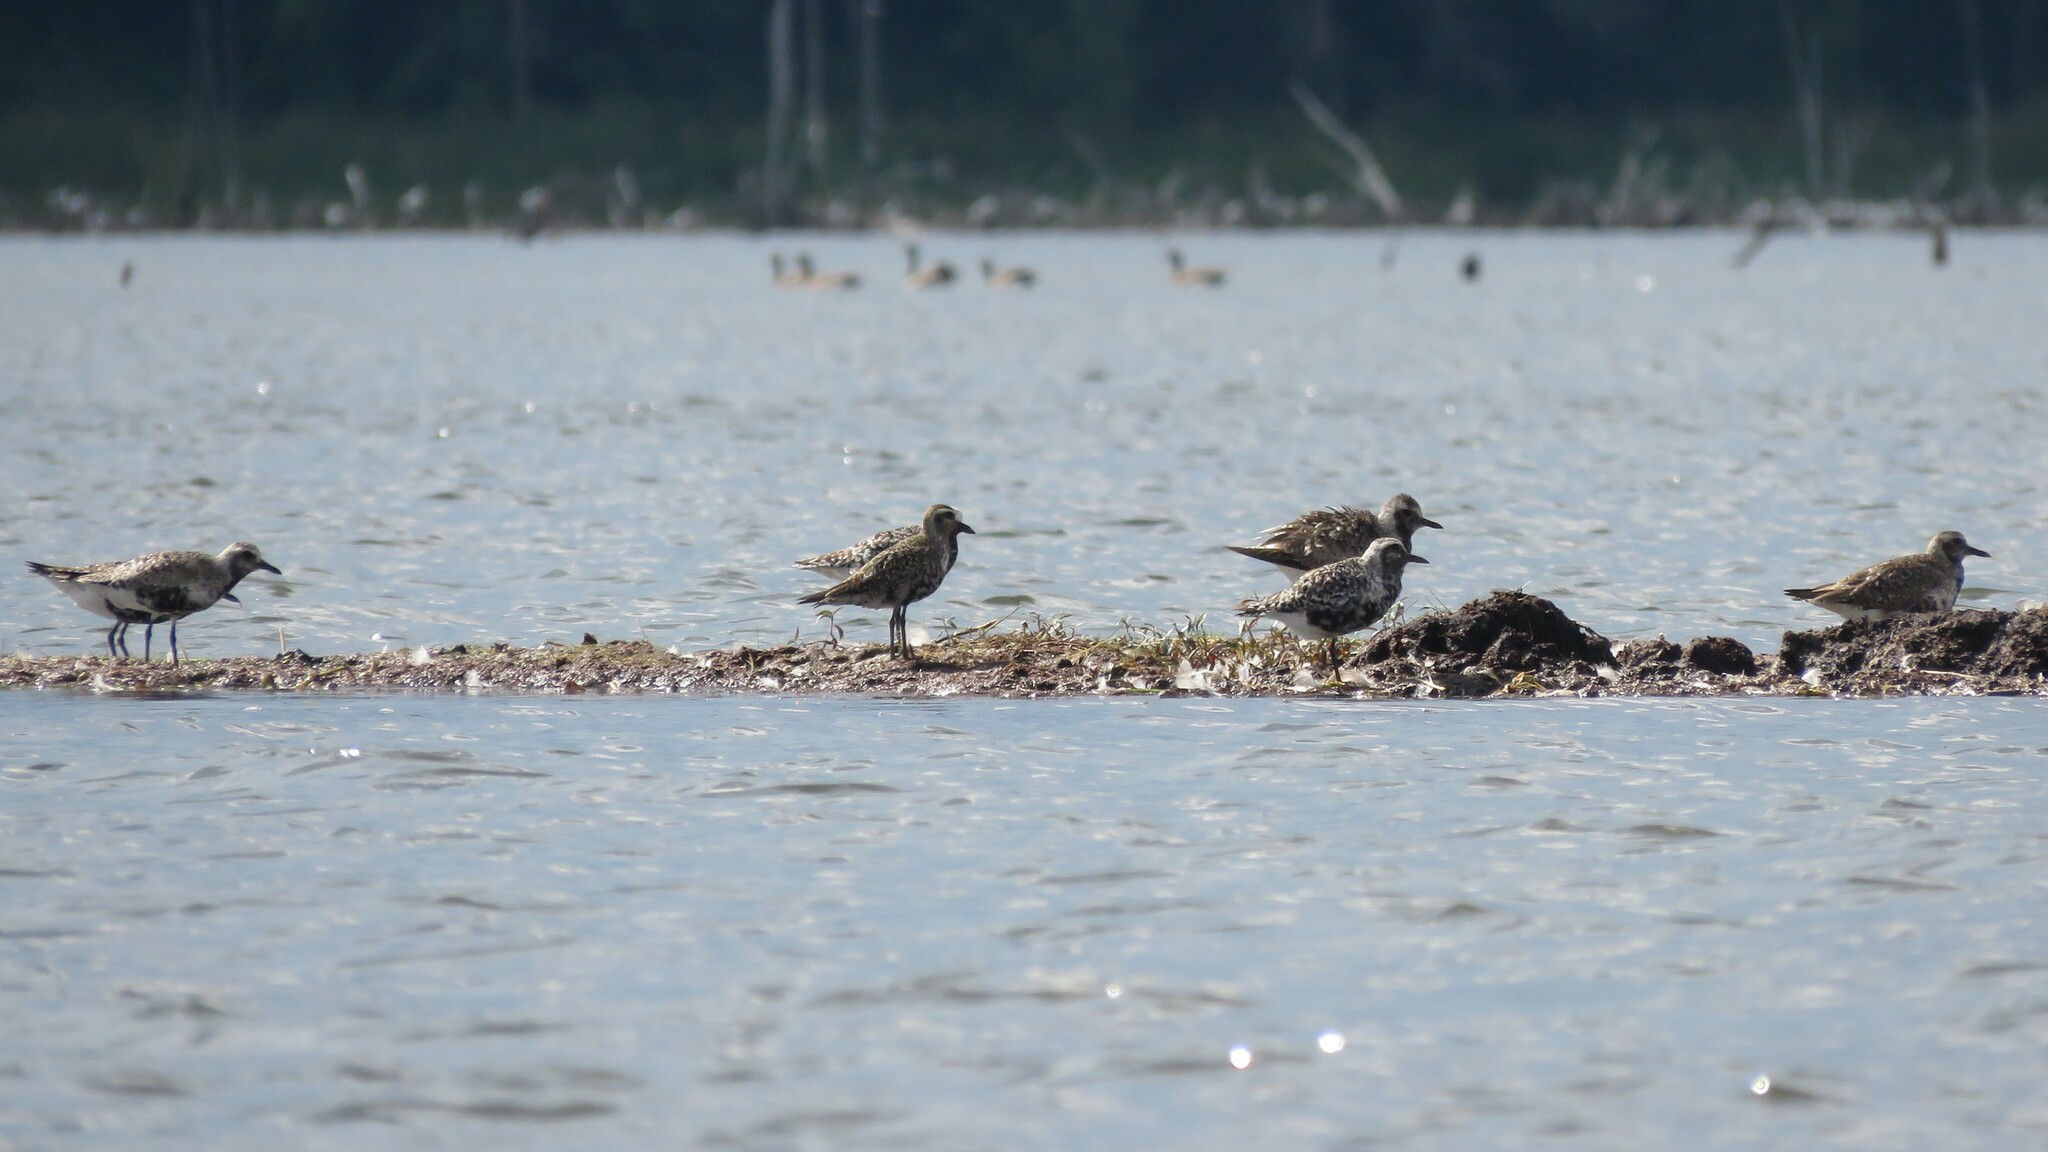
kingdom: Animalia
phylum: Chordata
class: Aves
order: Charadriiformes
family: Charadriidae
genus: Pluvialis
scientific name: Pluvialis squatarola
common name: Grey plover
